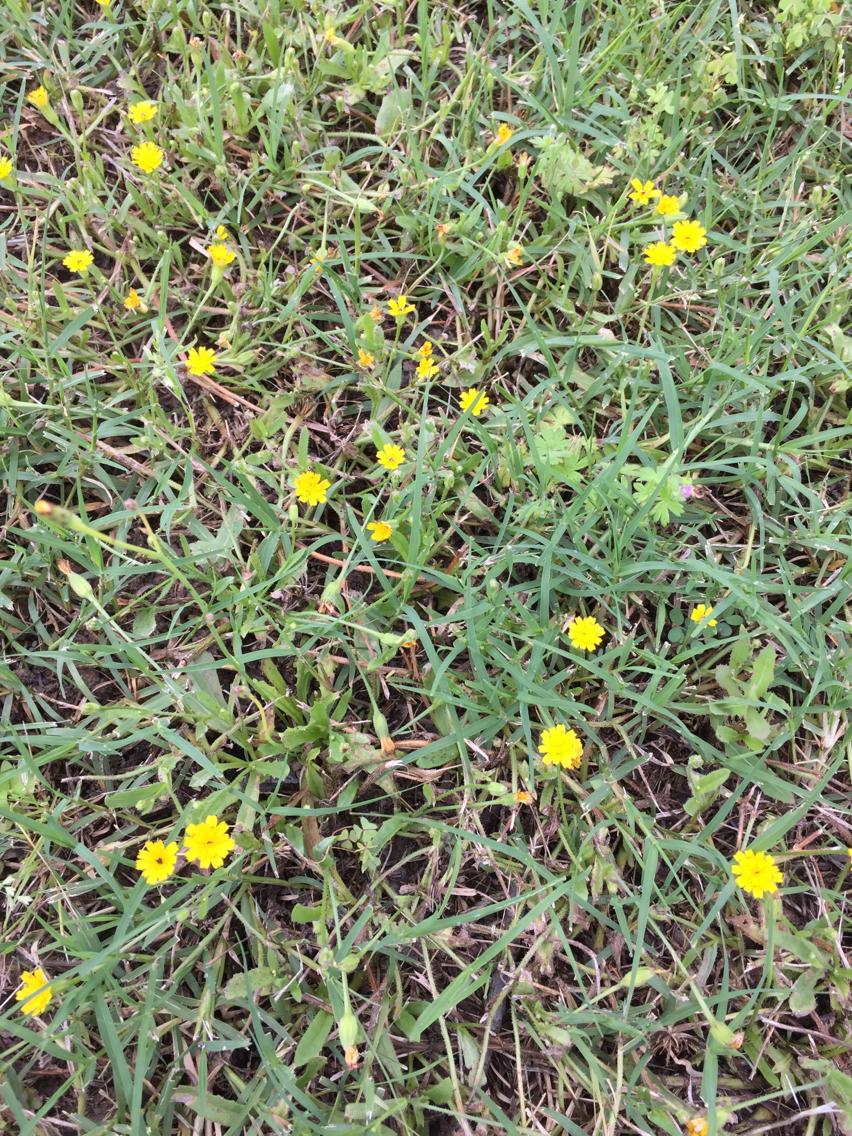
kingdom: Plantae
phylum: Tracheophyta
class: Magnoliopsida
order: Asterales
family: Asteraceae
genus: Hedypnois
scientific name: Hedypnois rhagadioloides
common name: Cretan weed
